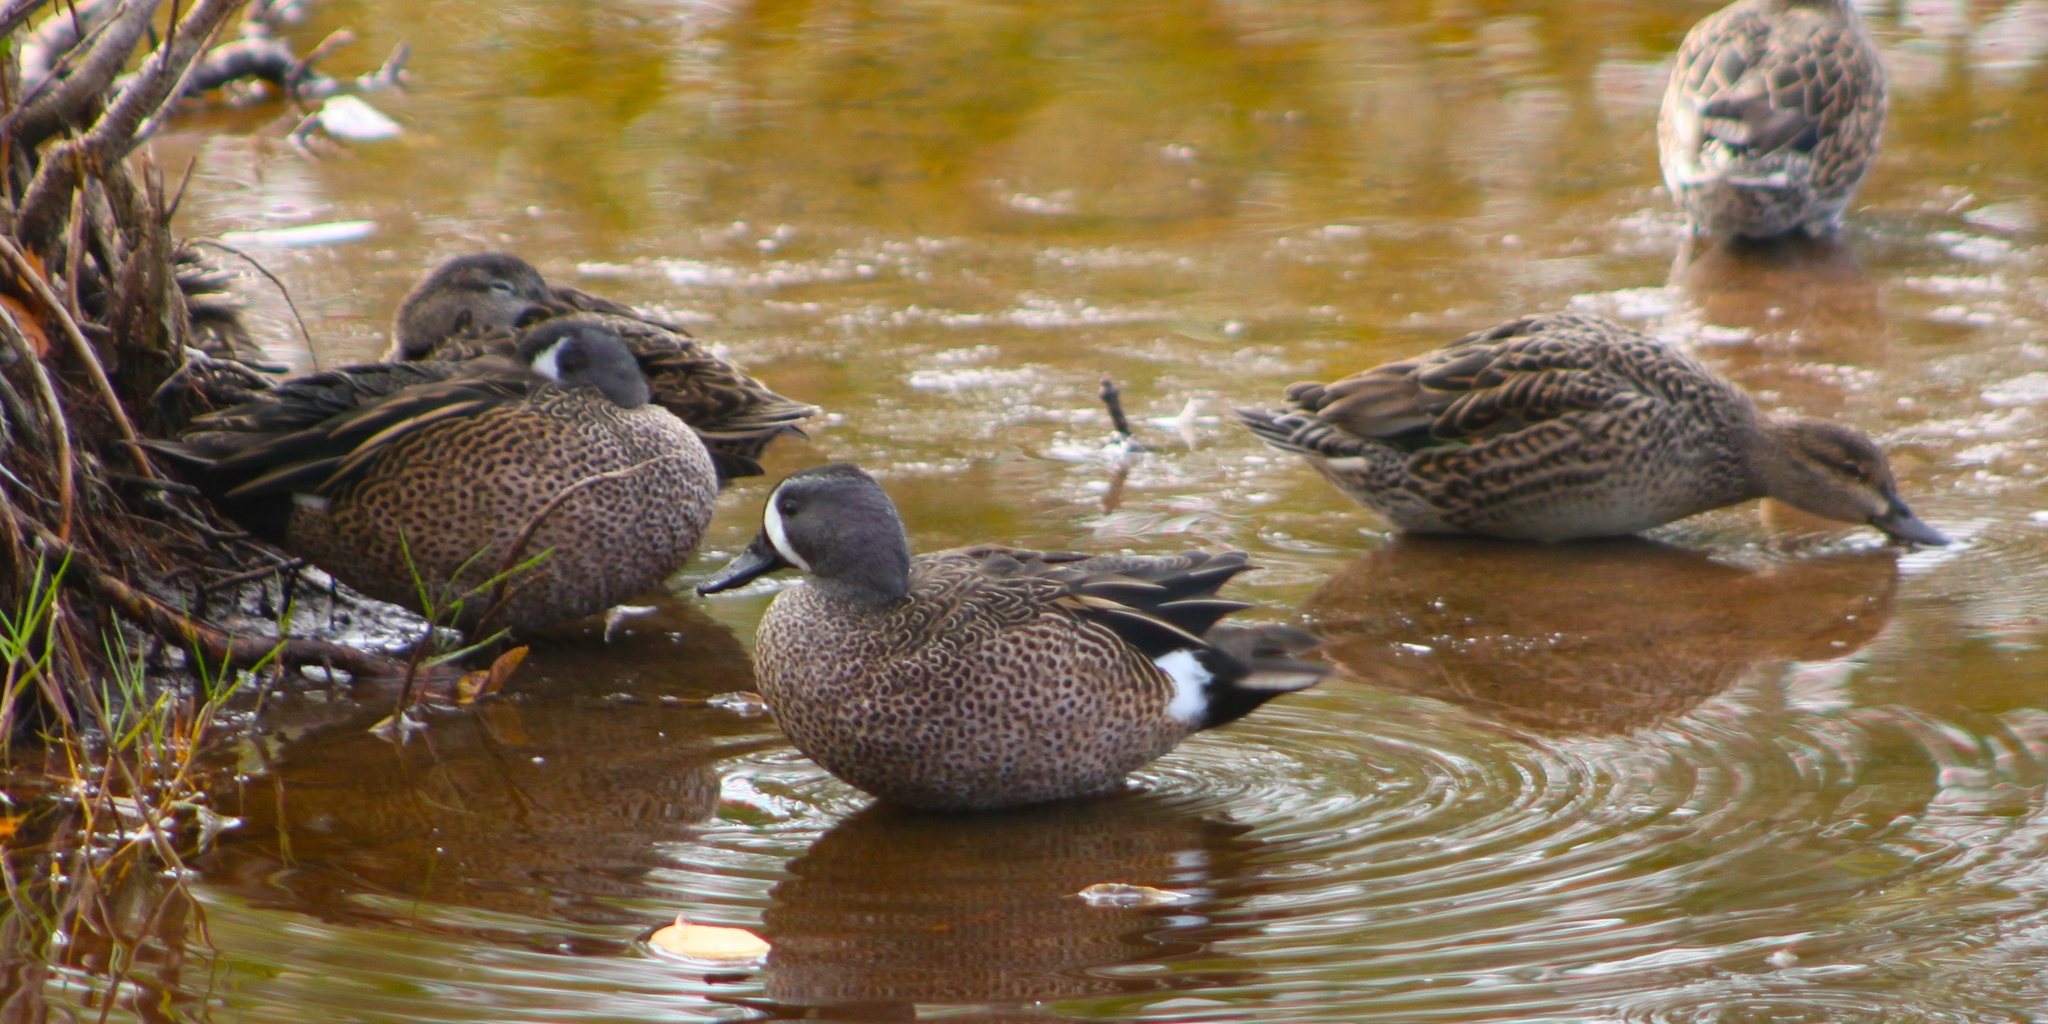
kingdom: Animalia
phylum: Chordata
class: Aves
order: Anseriformes
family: Anatidae
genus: Spatula
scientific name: Spatula discors
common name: Blue-winged teal
